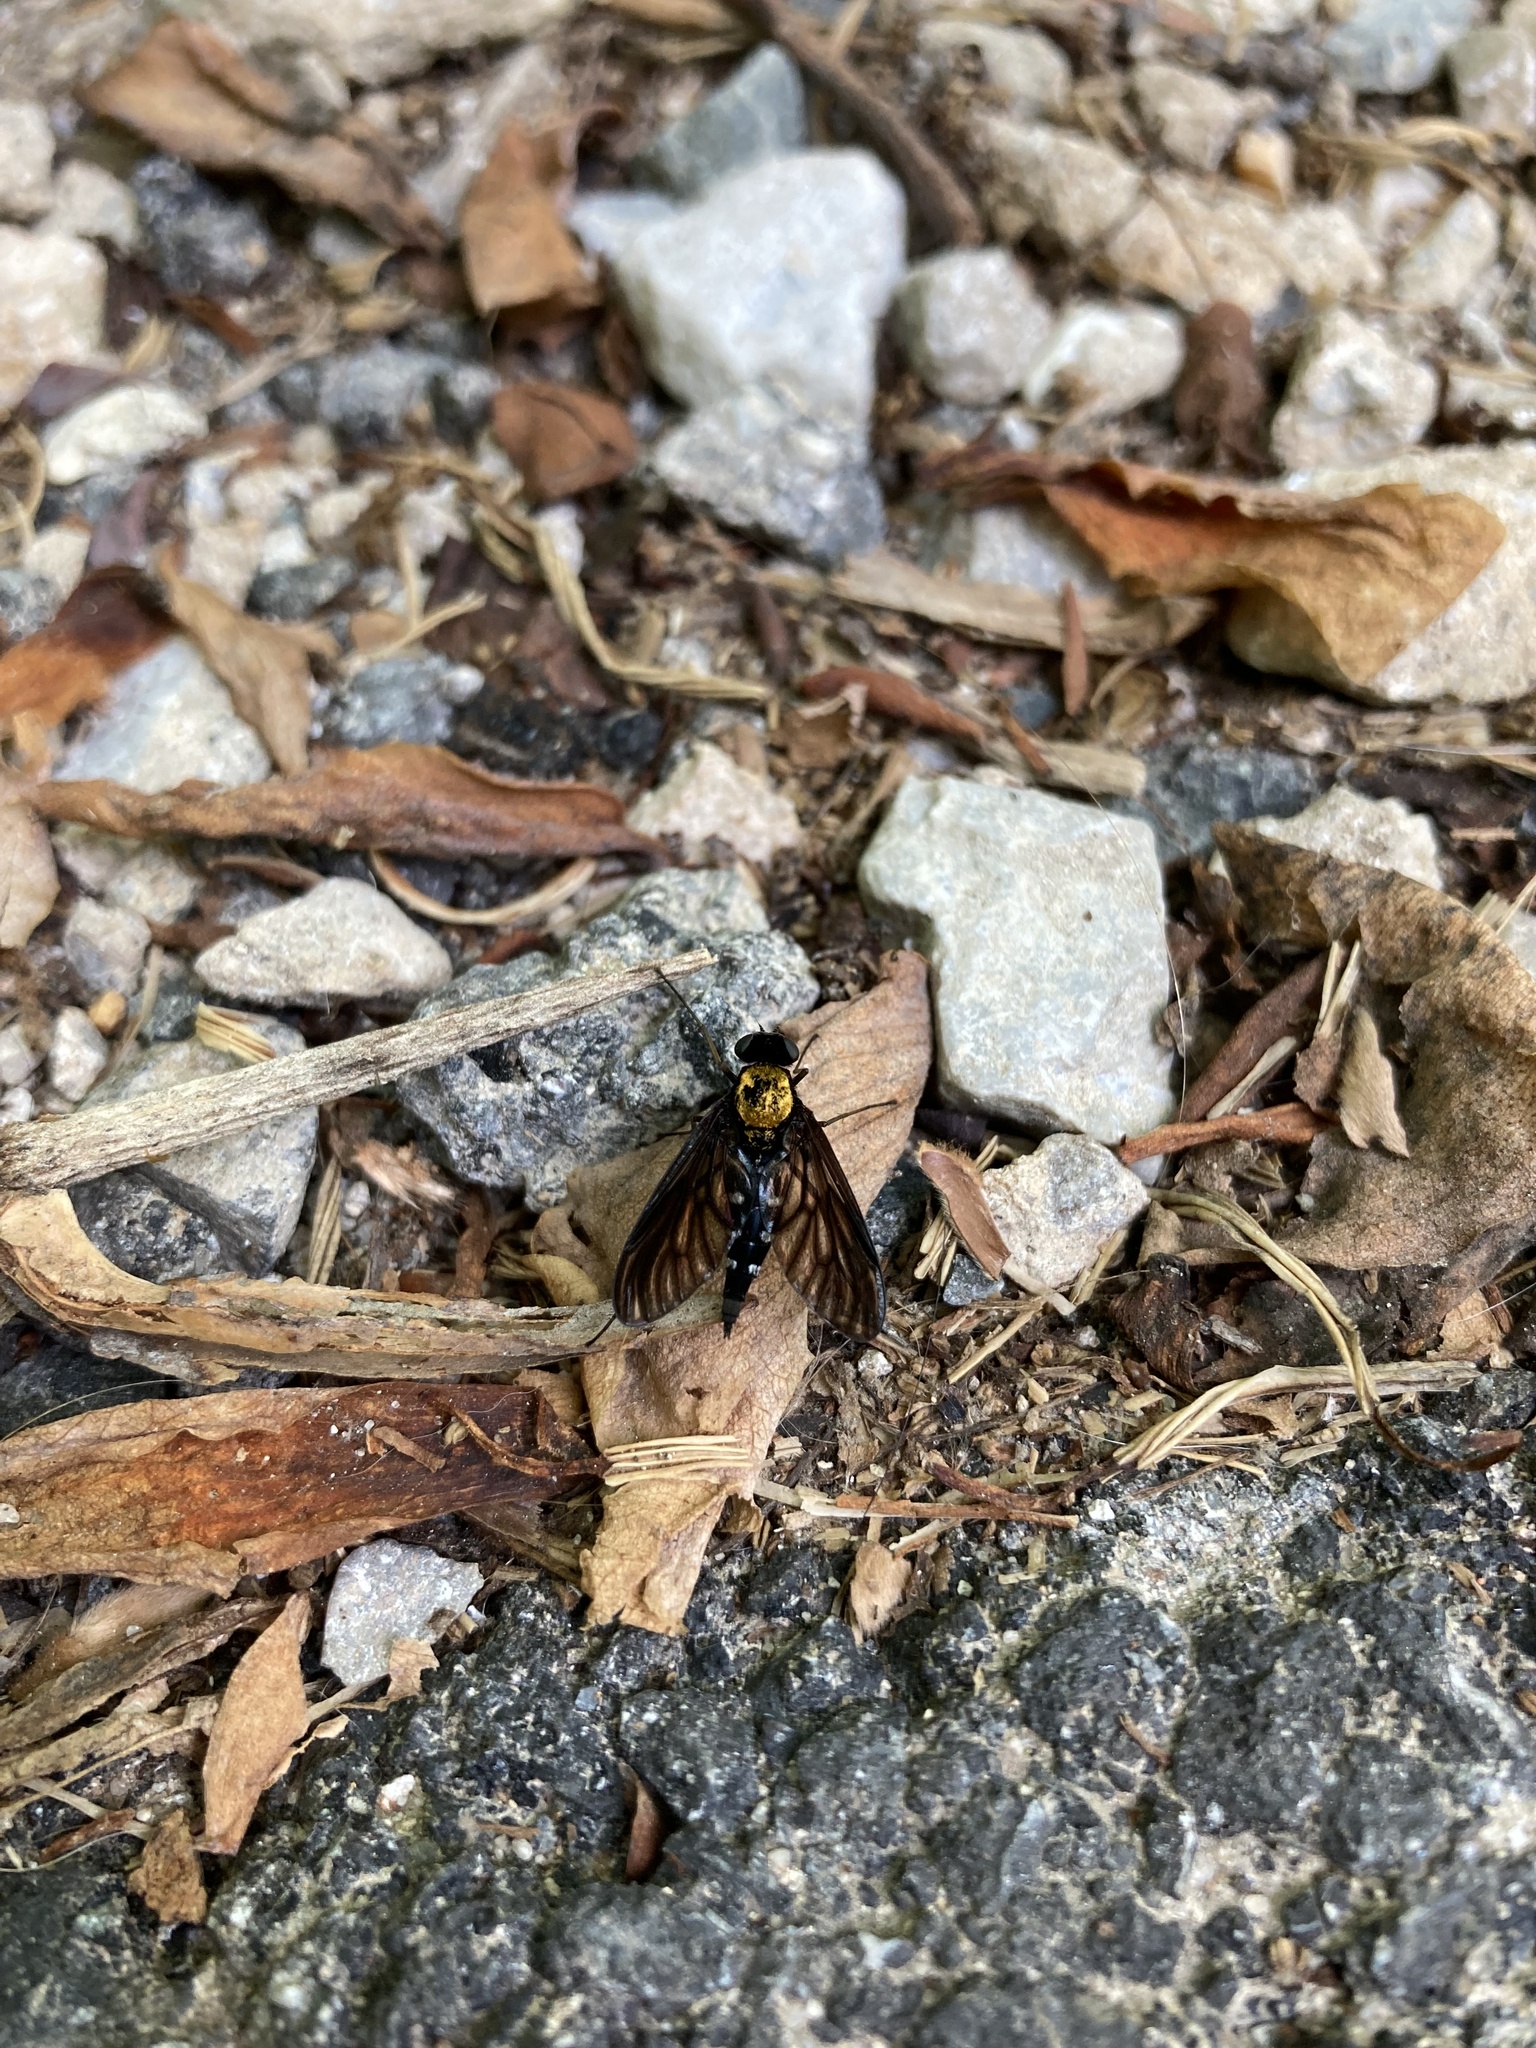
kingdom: Animalia
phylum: Arthropoda
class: Insecta
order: Diptera
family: Rhagionidae
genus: Chrysopilus
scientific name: Chrysopilus thoracicus
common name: Golden-backed snipe fly
